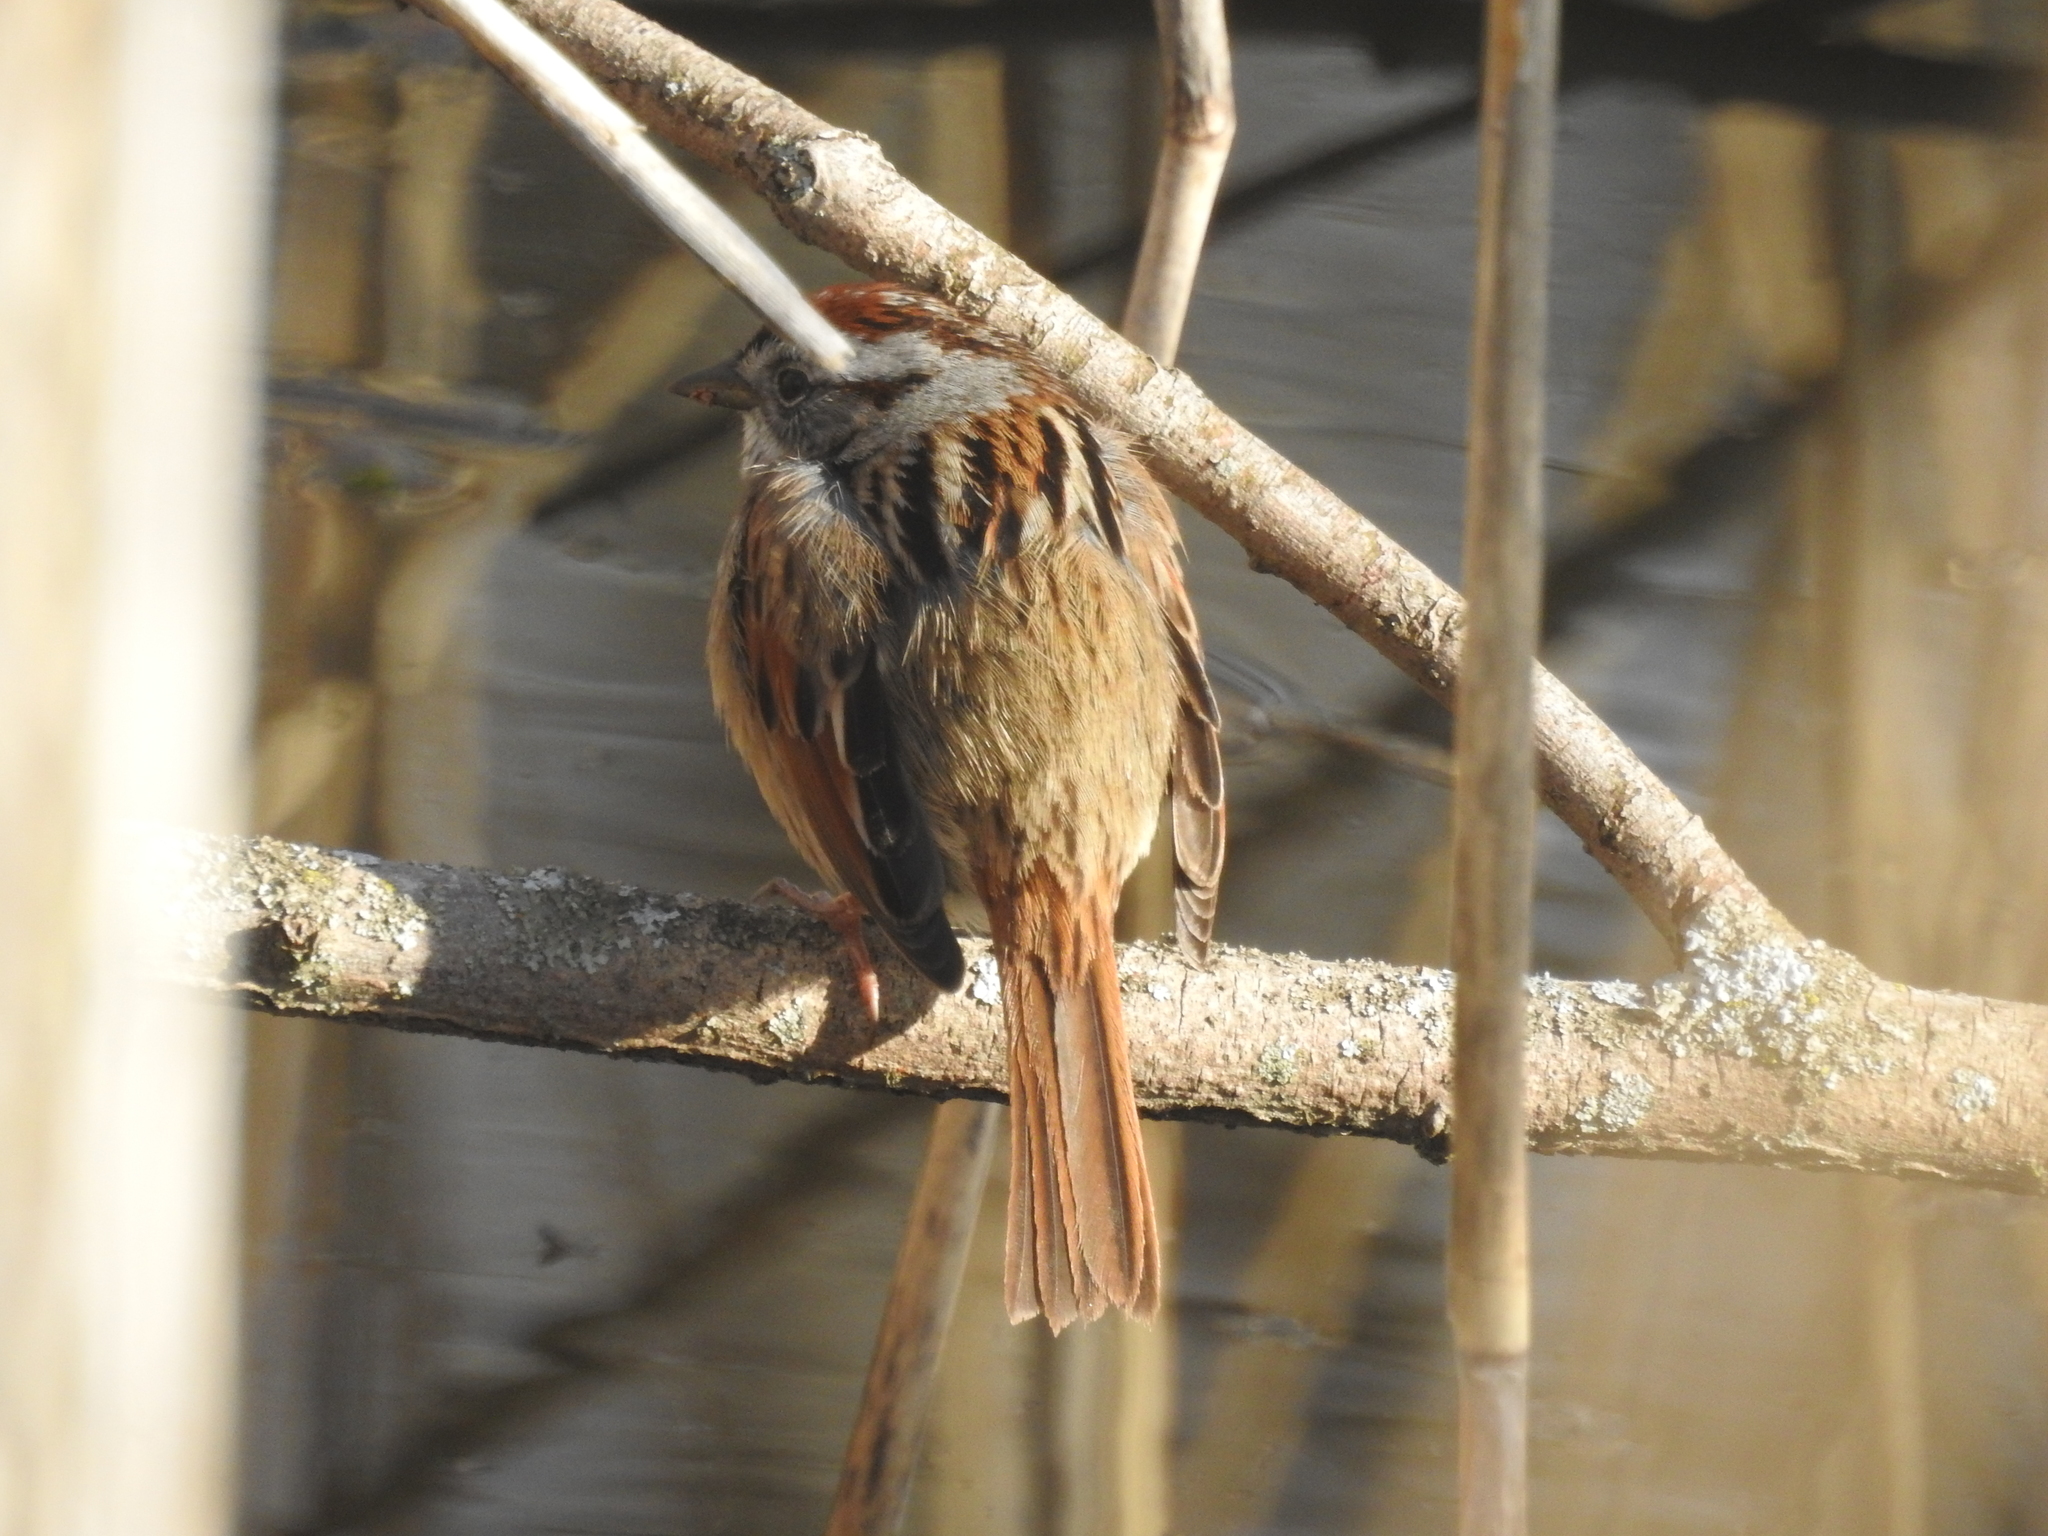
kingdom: Animalia
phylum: Chordata
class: Aves
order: Passeriformes
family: Passerellidae
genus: Melospiza
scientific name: Melospiza georgiana
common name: Swamp sparrow
